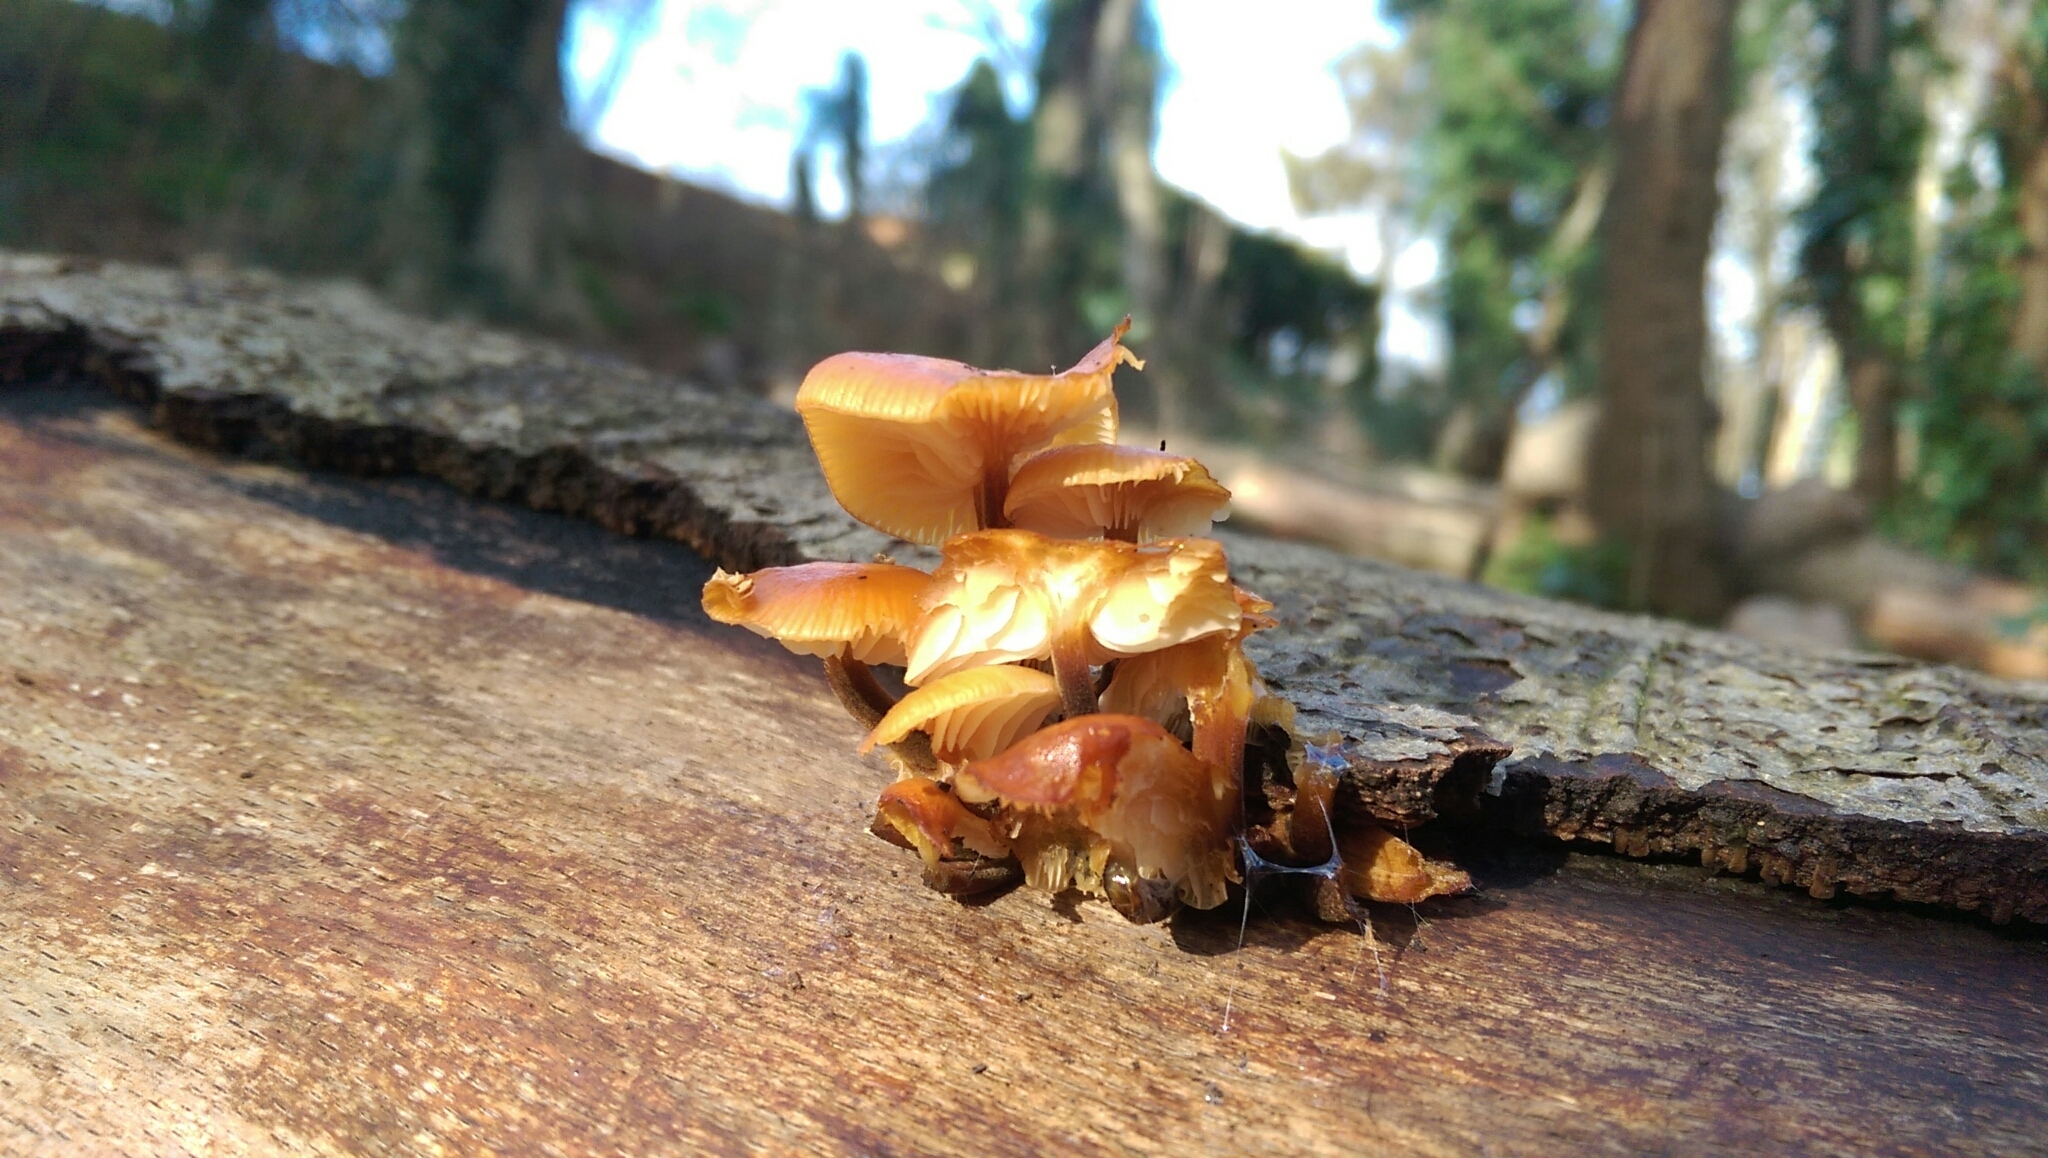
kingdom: Fungi
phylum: Basidiomycota
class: Agaricomycetes
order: Agaricales
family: Physalacriaceae
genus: Flammulina
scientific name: Flammulina
